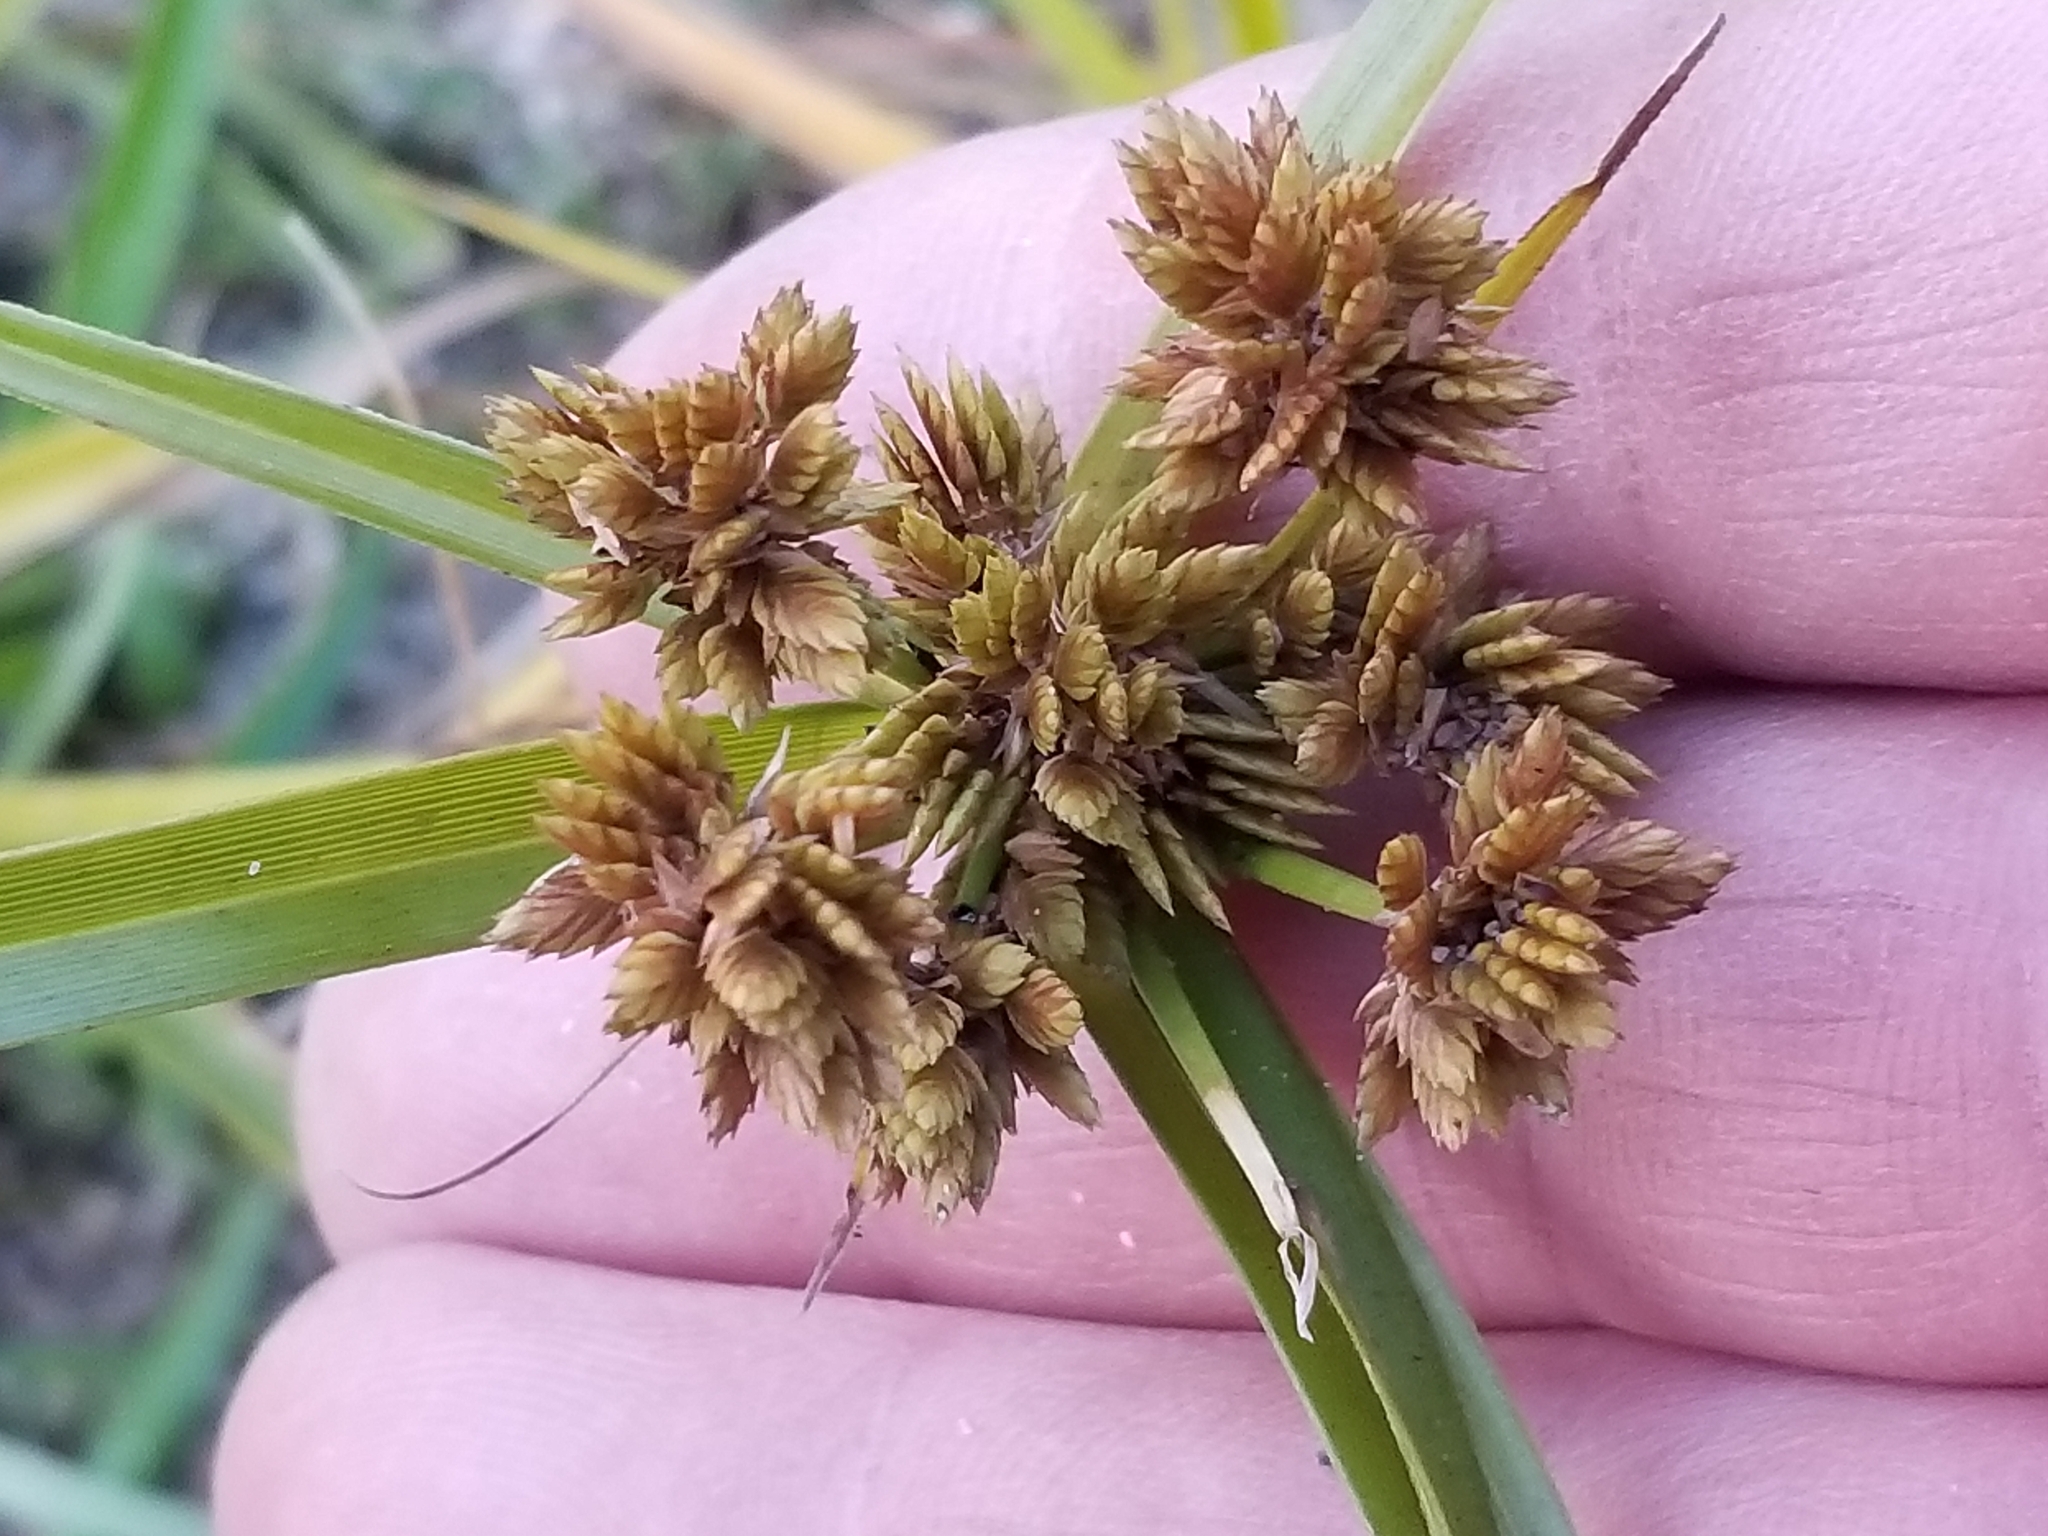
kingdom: Plantae
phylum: Tracheophyta
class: Liliopsida
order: Poales
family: Cyperaceae
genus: Cyperus
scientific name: Cyperus eragrostis
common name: Tall flatsedge
